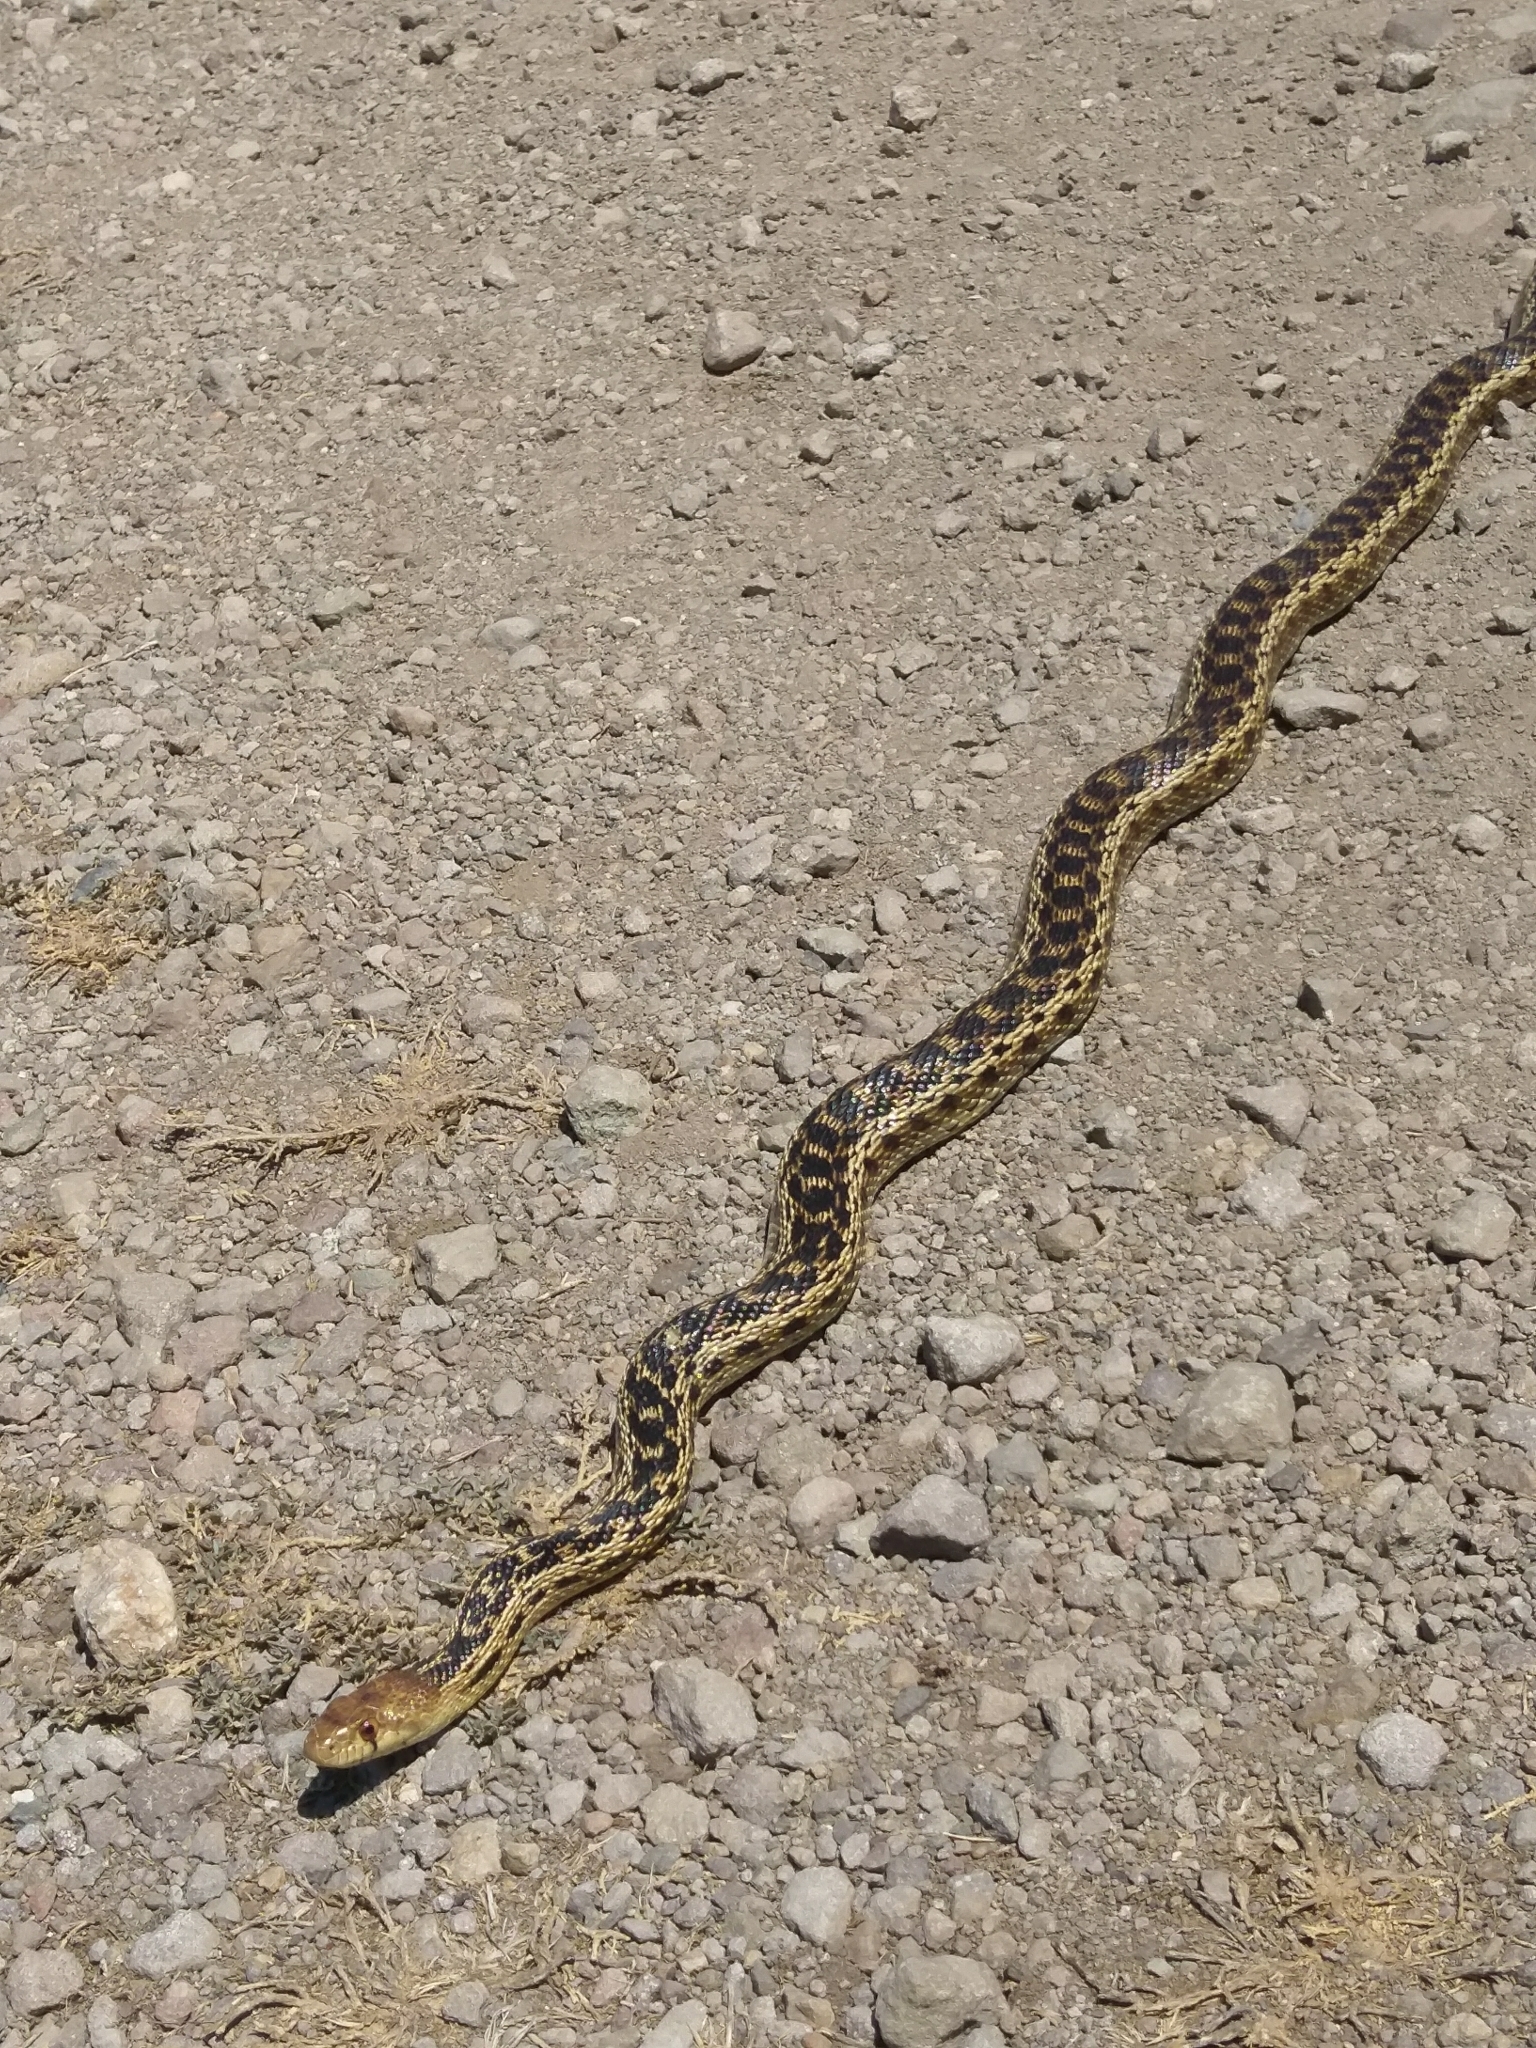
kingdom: Animalia
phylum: Chordata
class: Squamata
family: Colubridae
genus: Pituophis
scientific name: Pituophis catenifer
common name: Gopher snake
